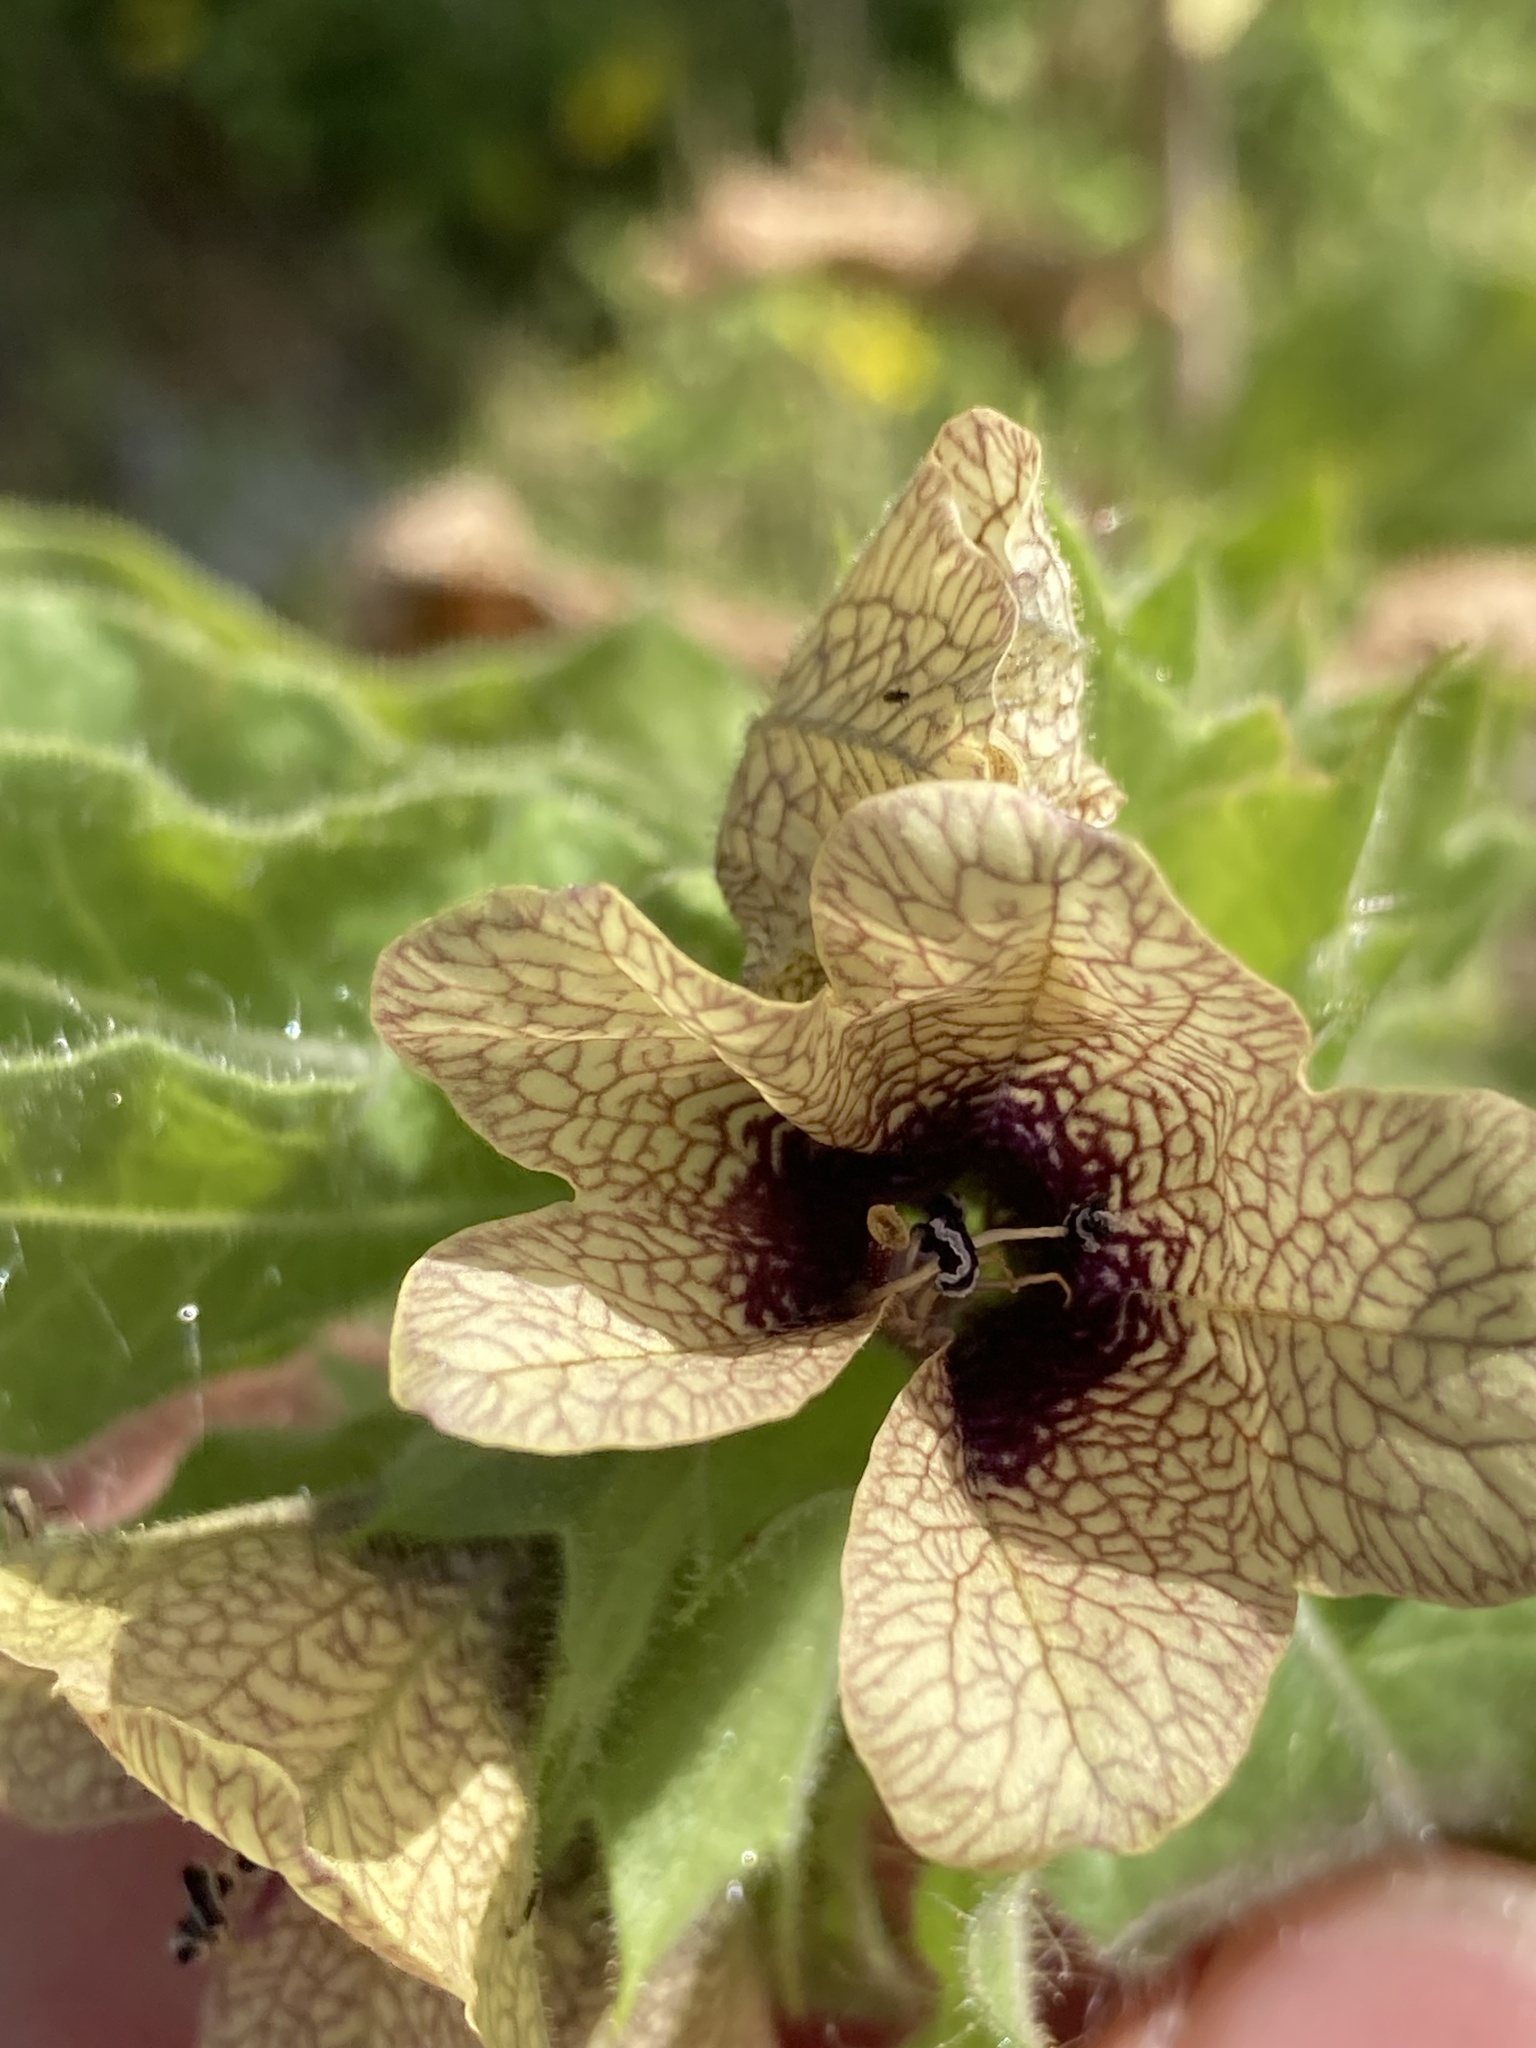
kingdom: Plantae
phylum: Tracheophyta
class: Magnoliopsida
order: Solanales
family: Solanaceae
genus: Hyoscyamus
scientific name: Hyoscyamus niger
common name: Henbane
